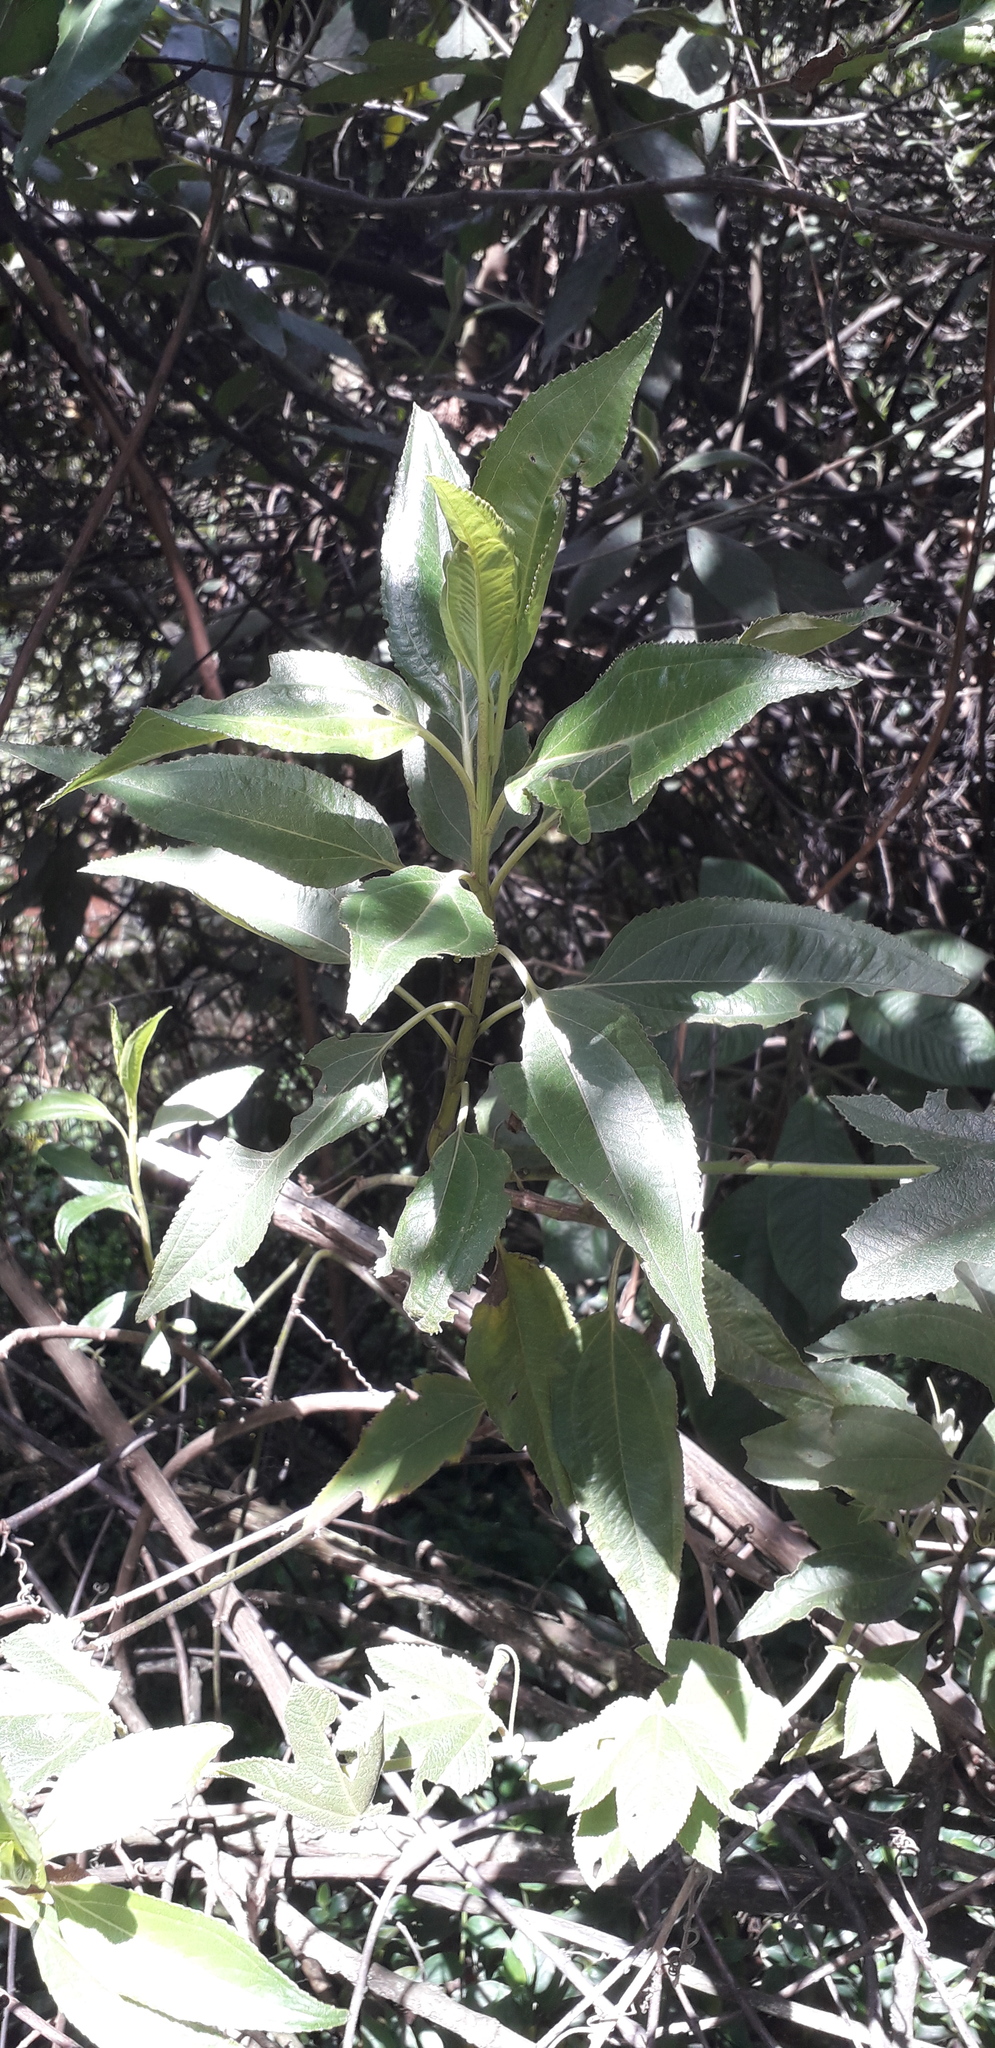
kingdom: Plantae
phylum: Tracheophyta
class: Magnoliopsida
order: Asterales
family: Asteraceae
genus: Baccharis
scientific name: Baccharis latifolia
